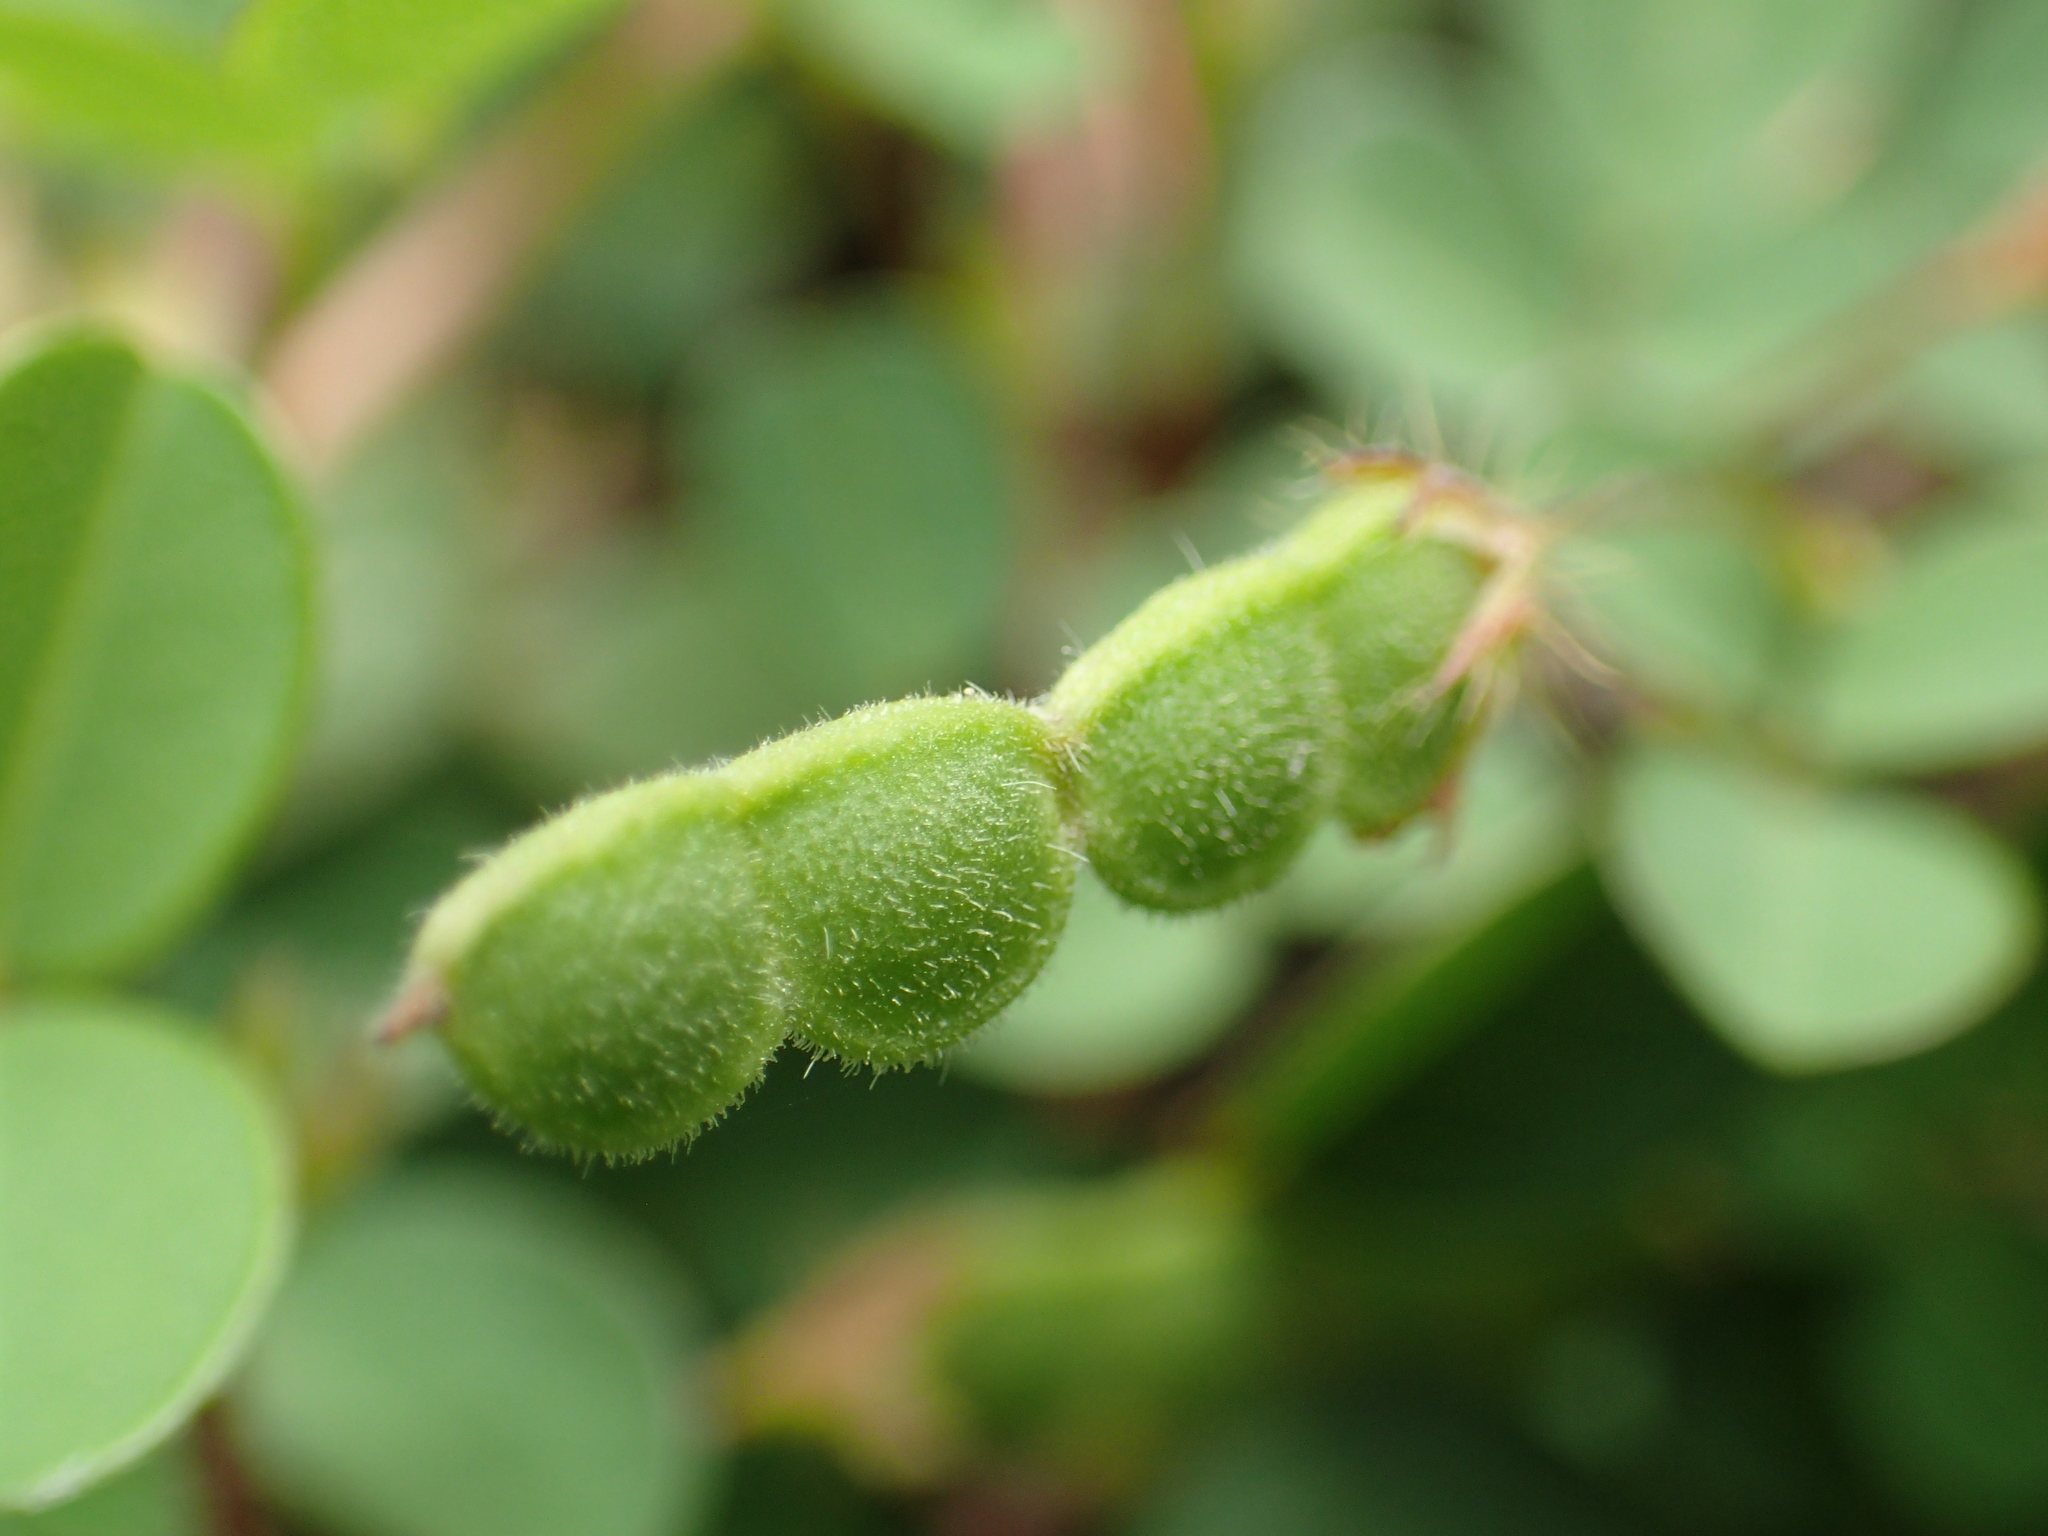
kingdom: Plantae
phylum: Tracheophyta
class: Magnoliopsida
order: Fabales
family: Fabaceae
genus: Grona
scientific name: Grona heterophylla
